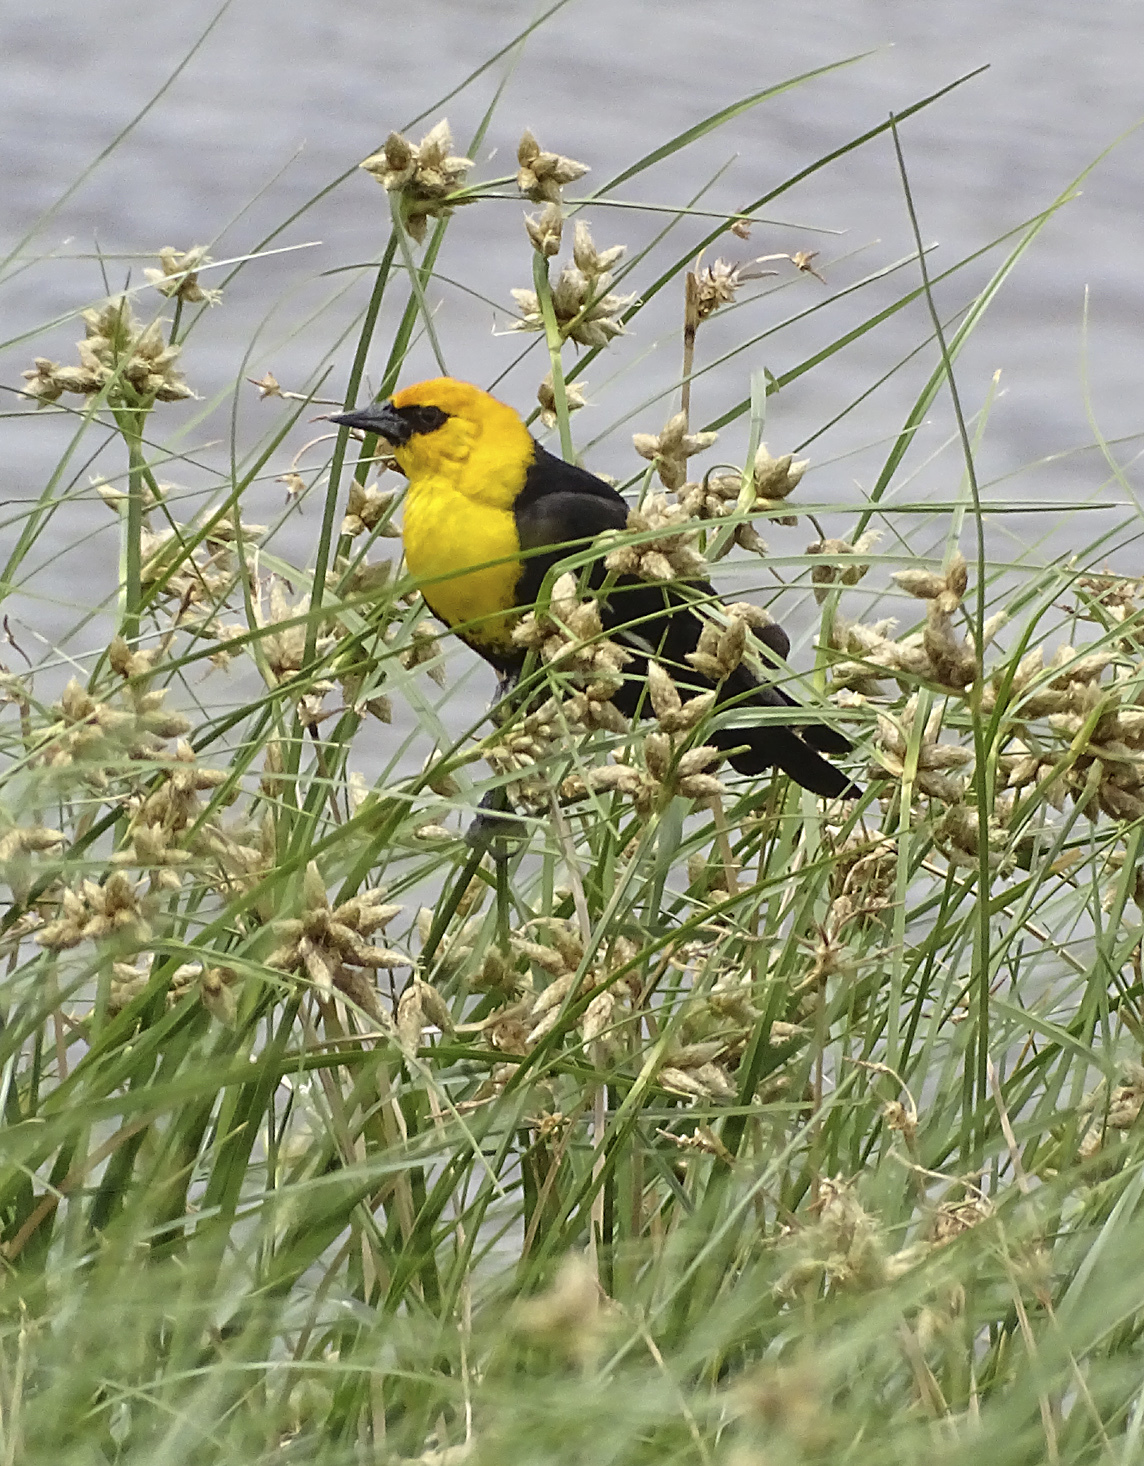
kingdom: Animalia
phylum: Chordata
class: Aves
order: Passeriformes
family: Icteridae
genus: Xanthocephalus
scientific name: Xanthocephalus xanthocephalus
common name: Yellow-headed blackbird
